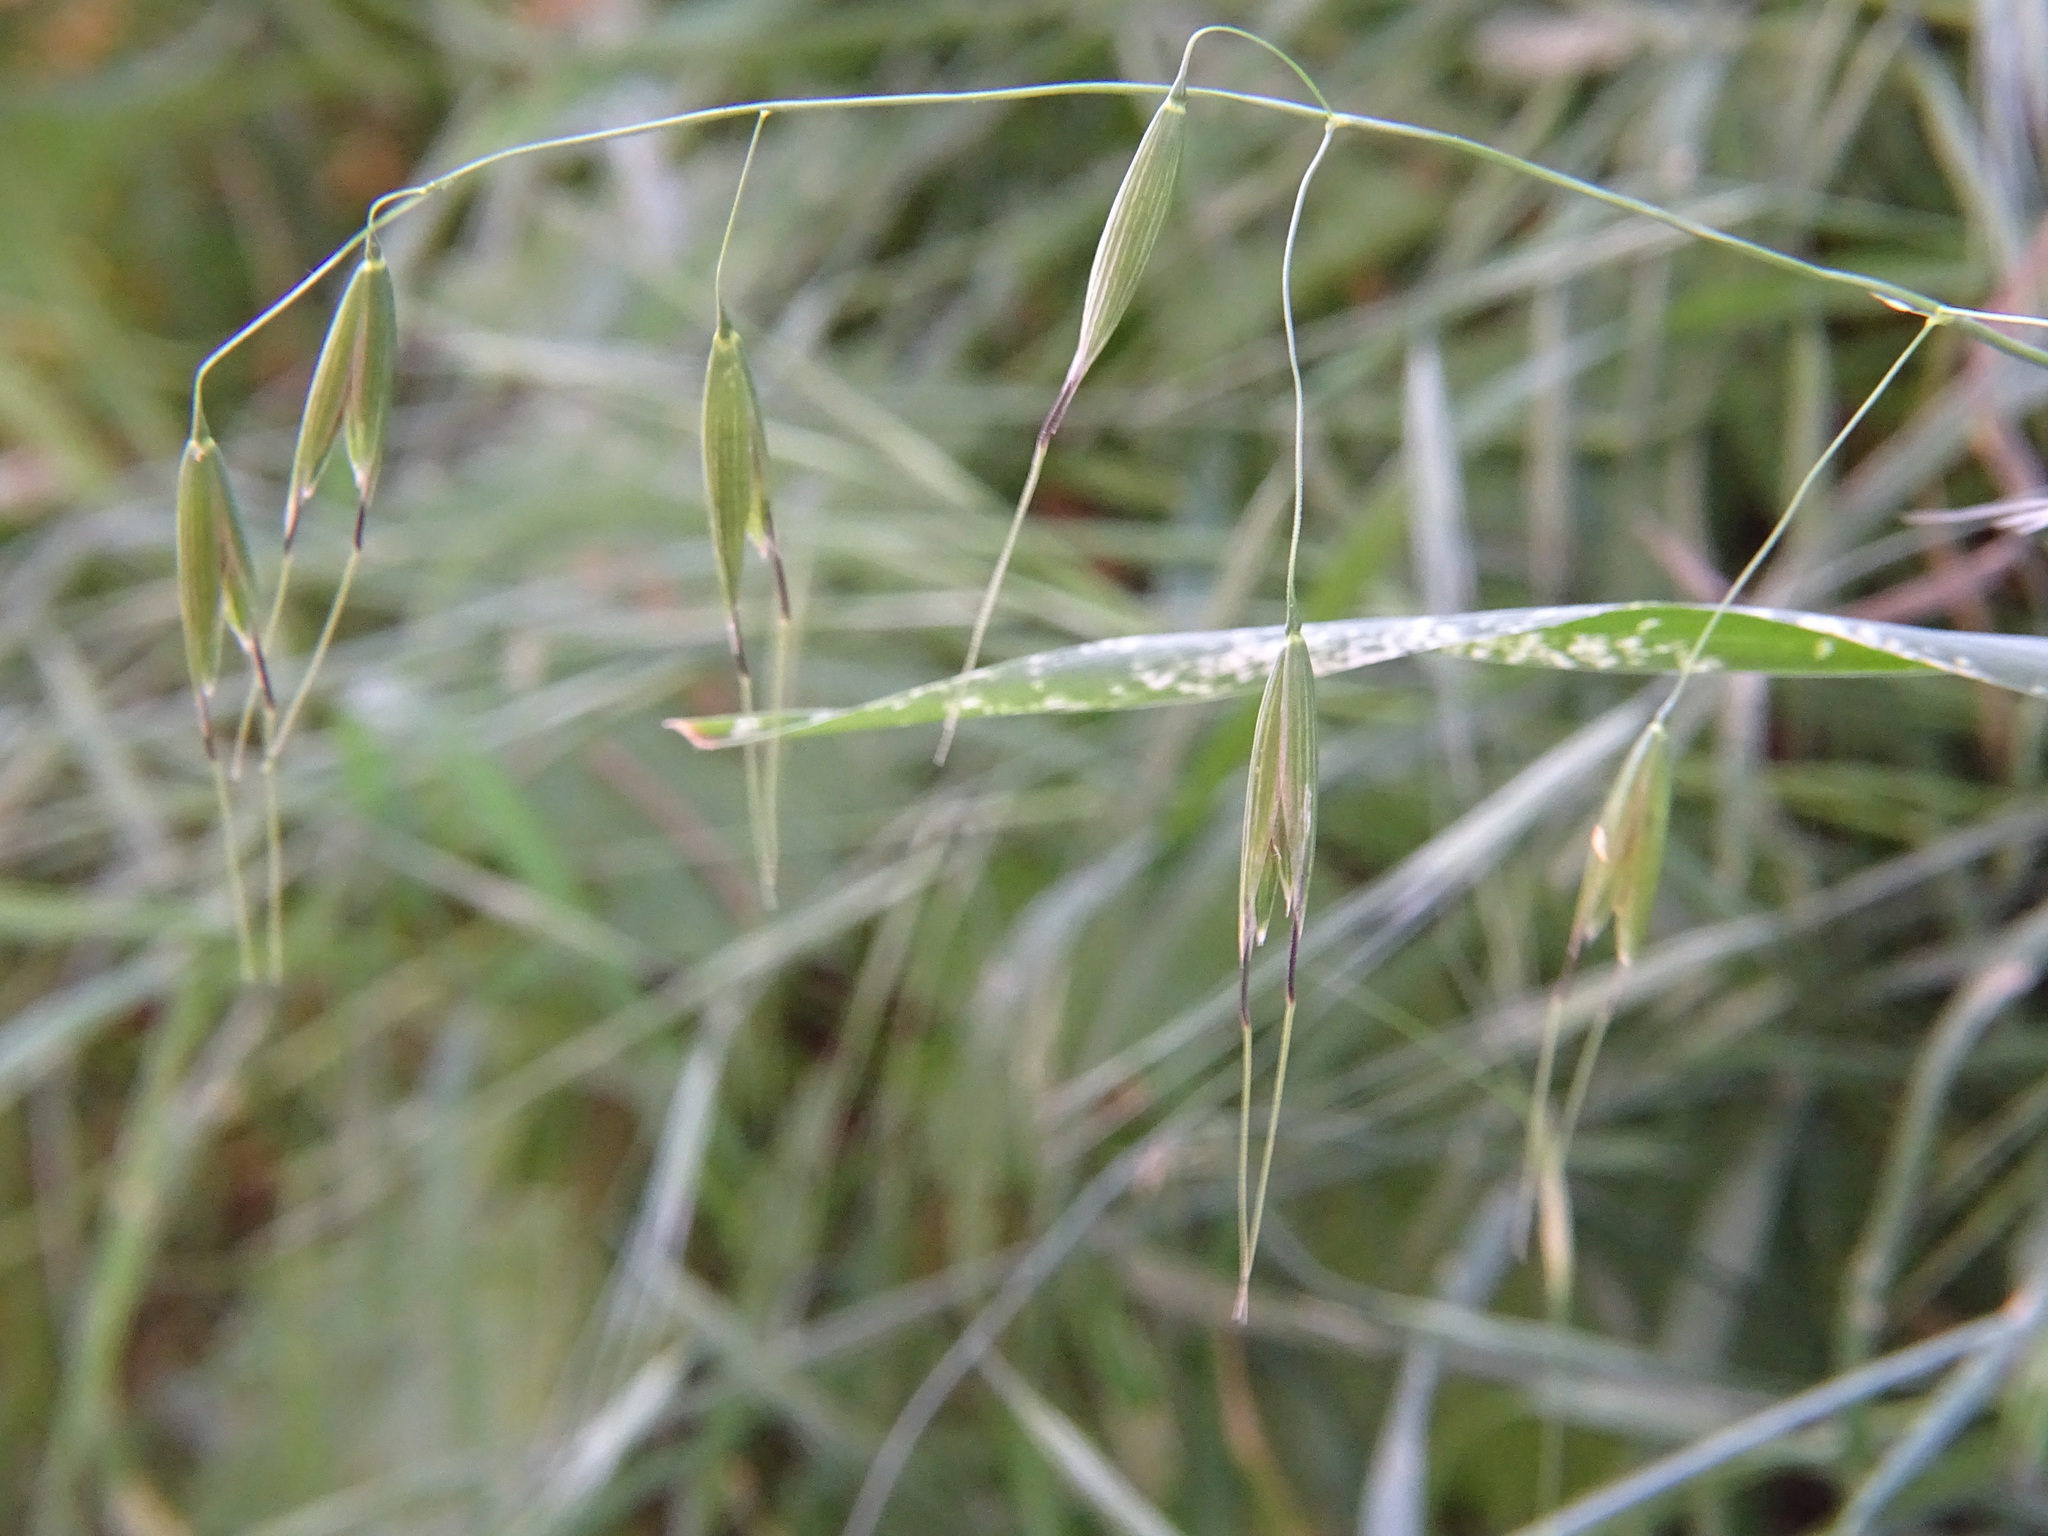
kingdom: Plantae
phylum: Tracheophyta
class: Liliopsida
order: Poales
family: Poaceae
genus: Avena
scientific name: Avena fatua
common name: Wild oat
